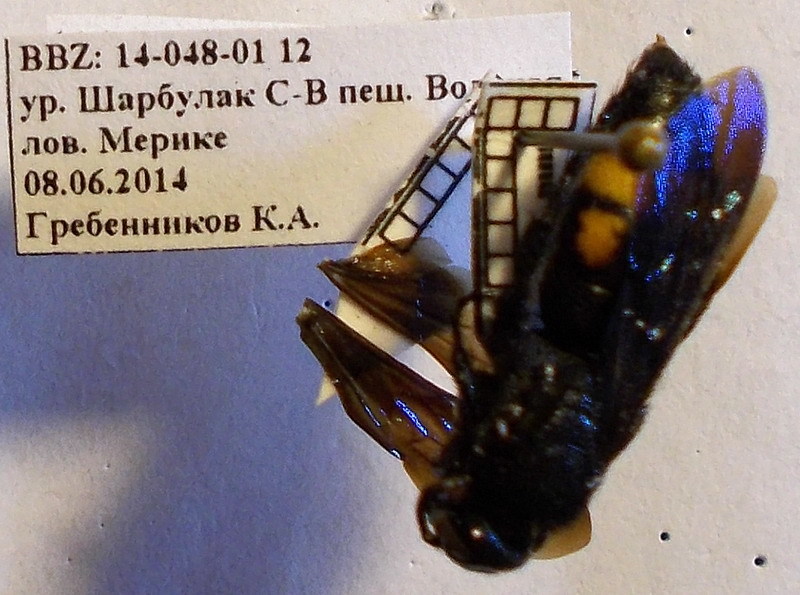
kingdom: Animalia
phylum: Arthropoda
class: Insecta
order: Hymenoptera
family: Scoliidae
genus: Scolia
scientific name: Scolia hirta
